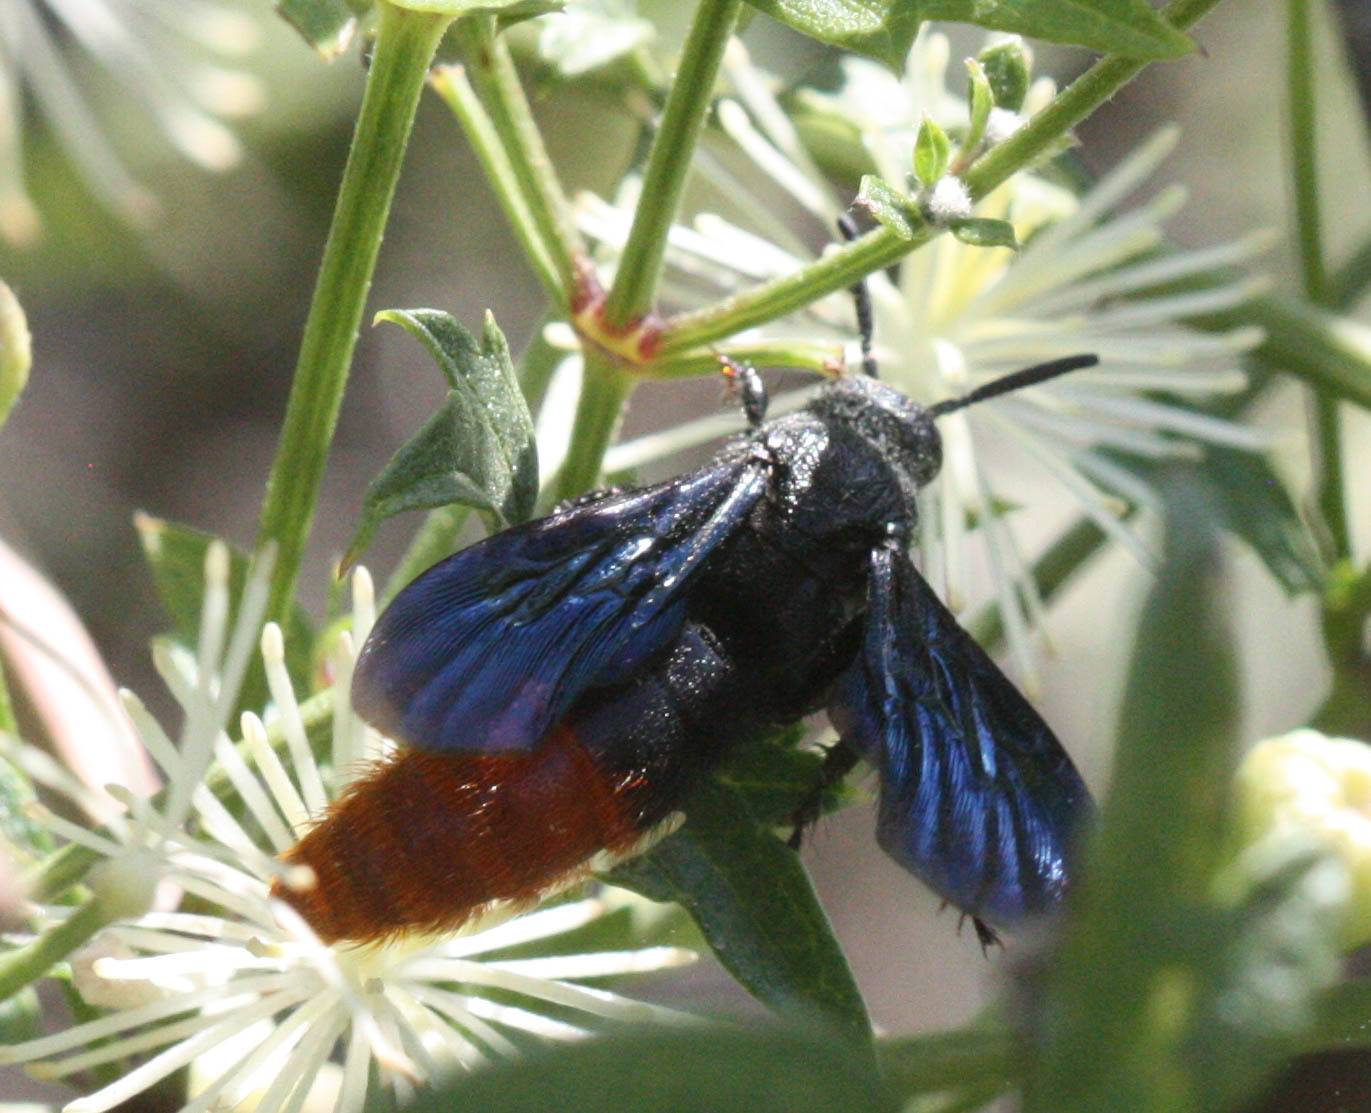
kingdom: Animalia
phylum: Arthropoda
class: Insecta
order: Hymenoptera
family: Scoliidae
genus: Triscolia
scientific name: Triscolia ardens
